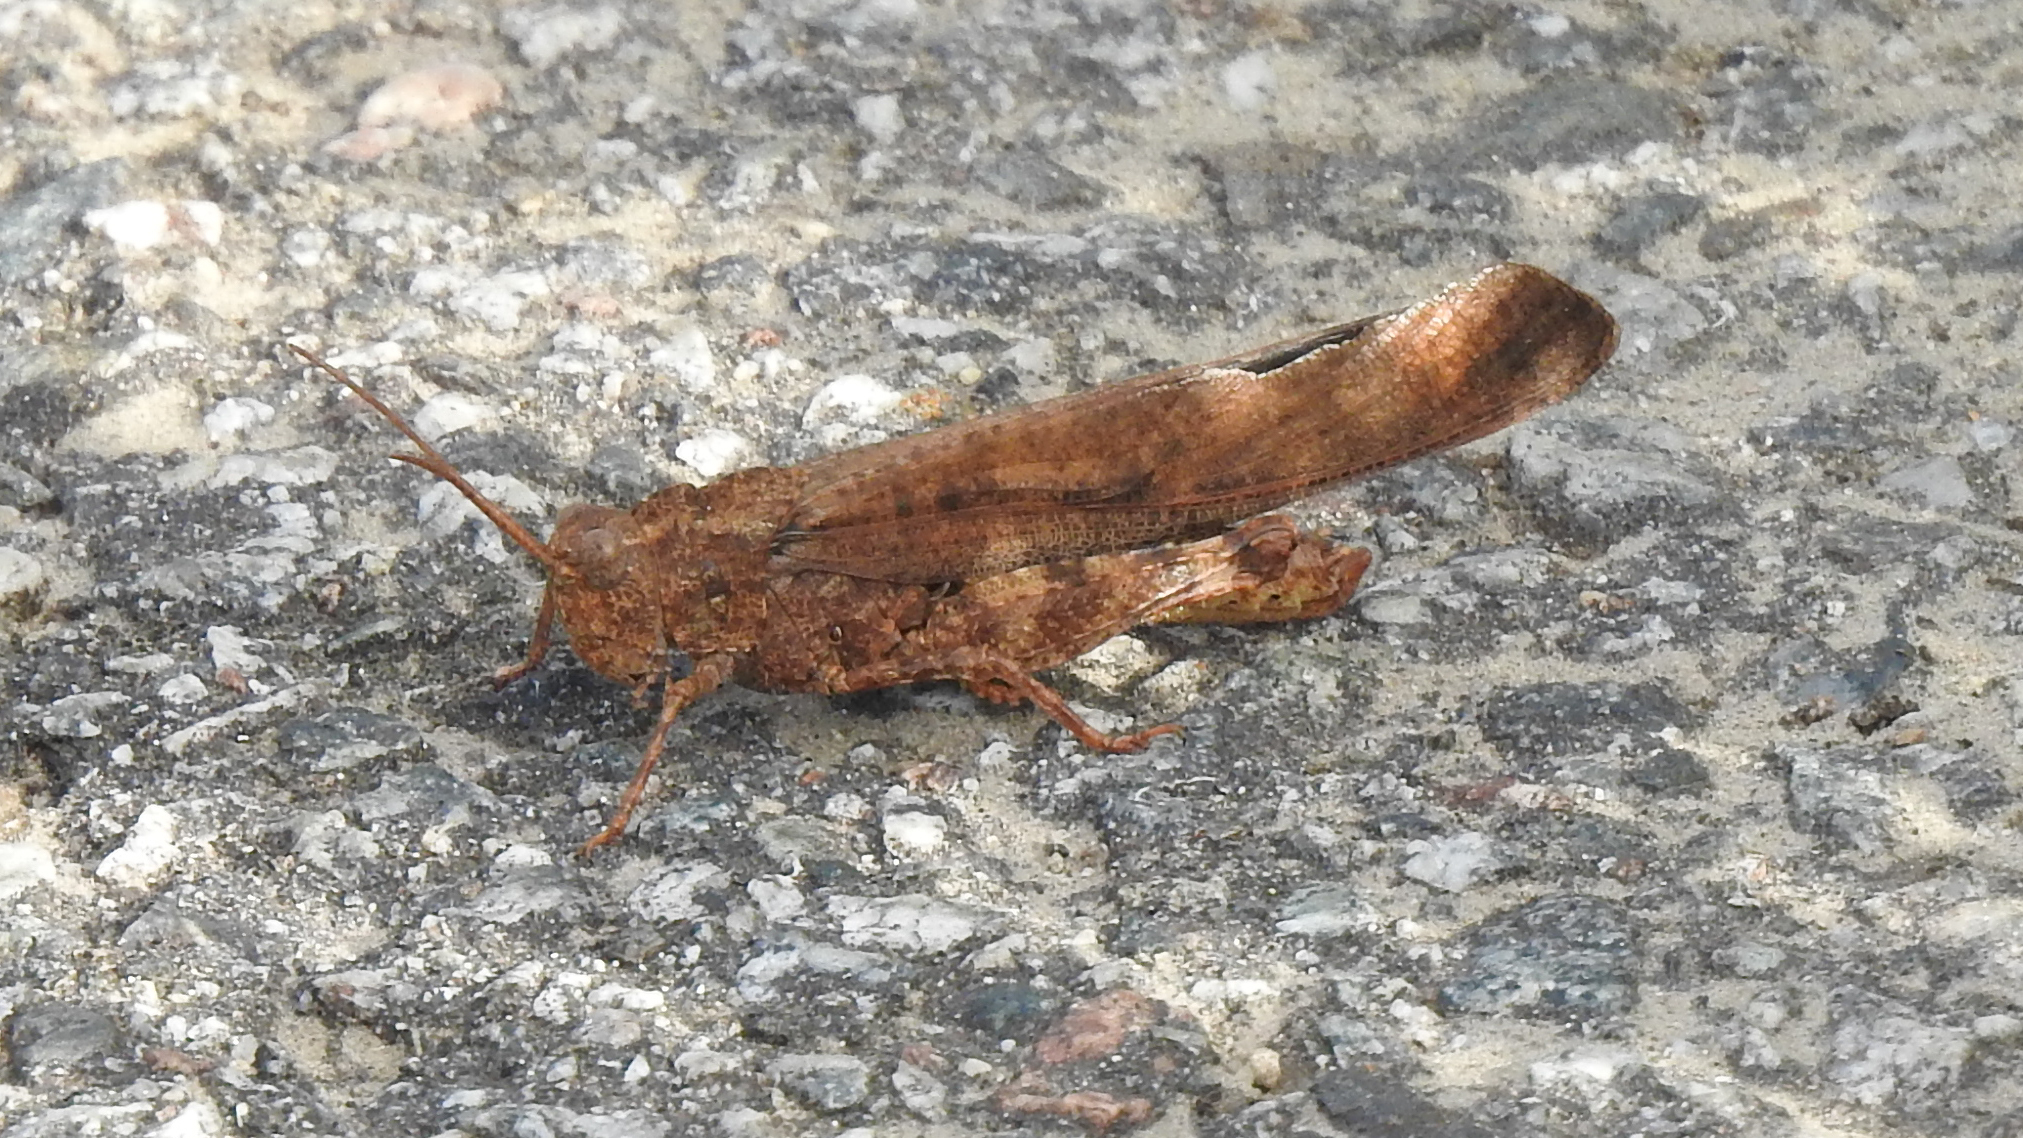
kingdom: Animalia
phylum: Arthropoda
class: Insecta
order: Orthoptera
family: Acrididae
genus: Dissosteira
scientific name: Dissosteira carolina
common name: Carolina grasshopper
